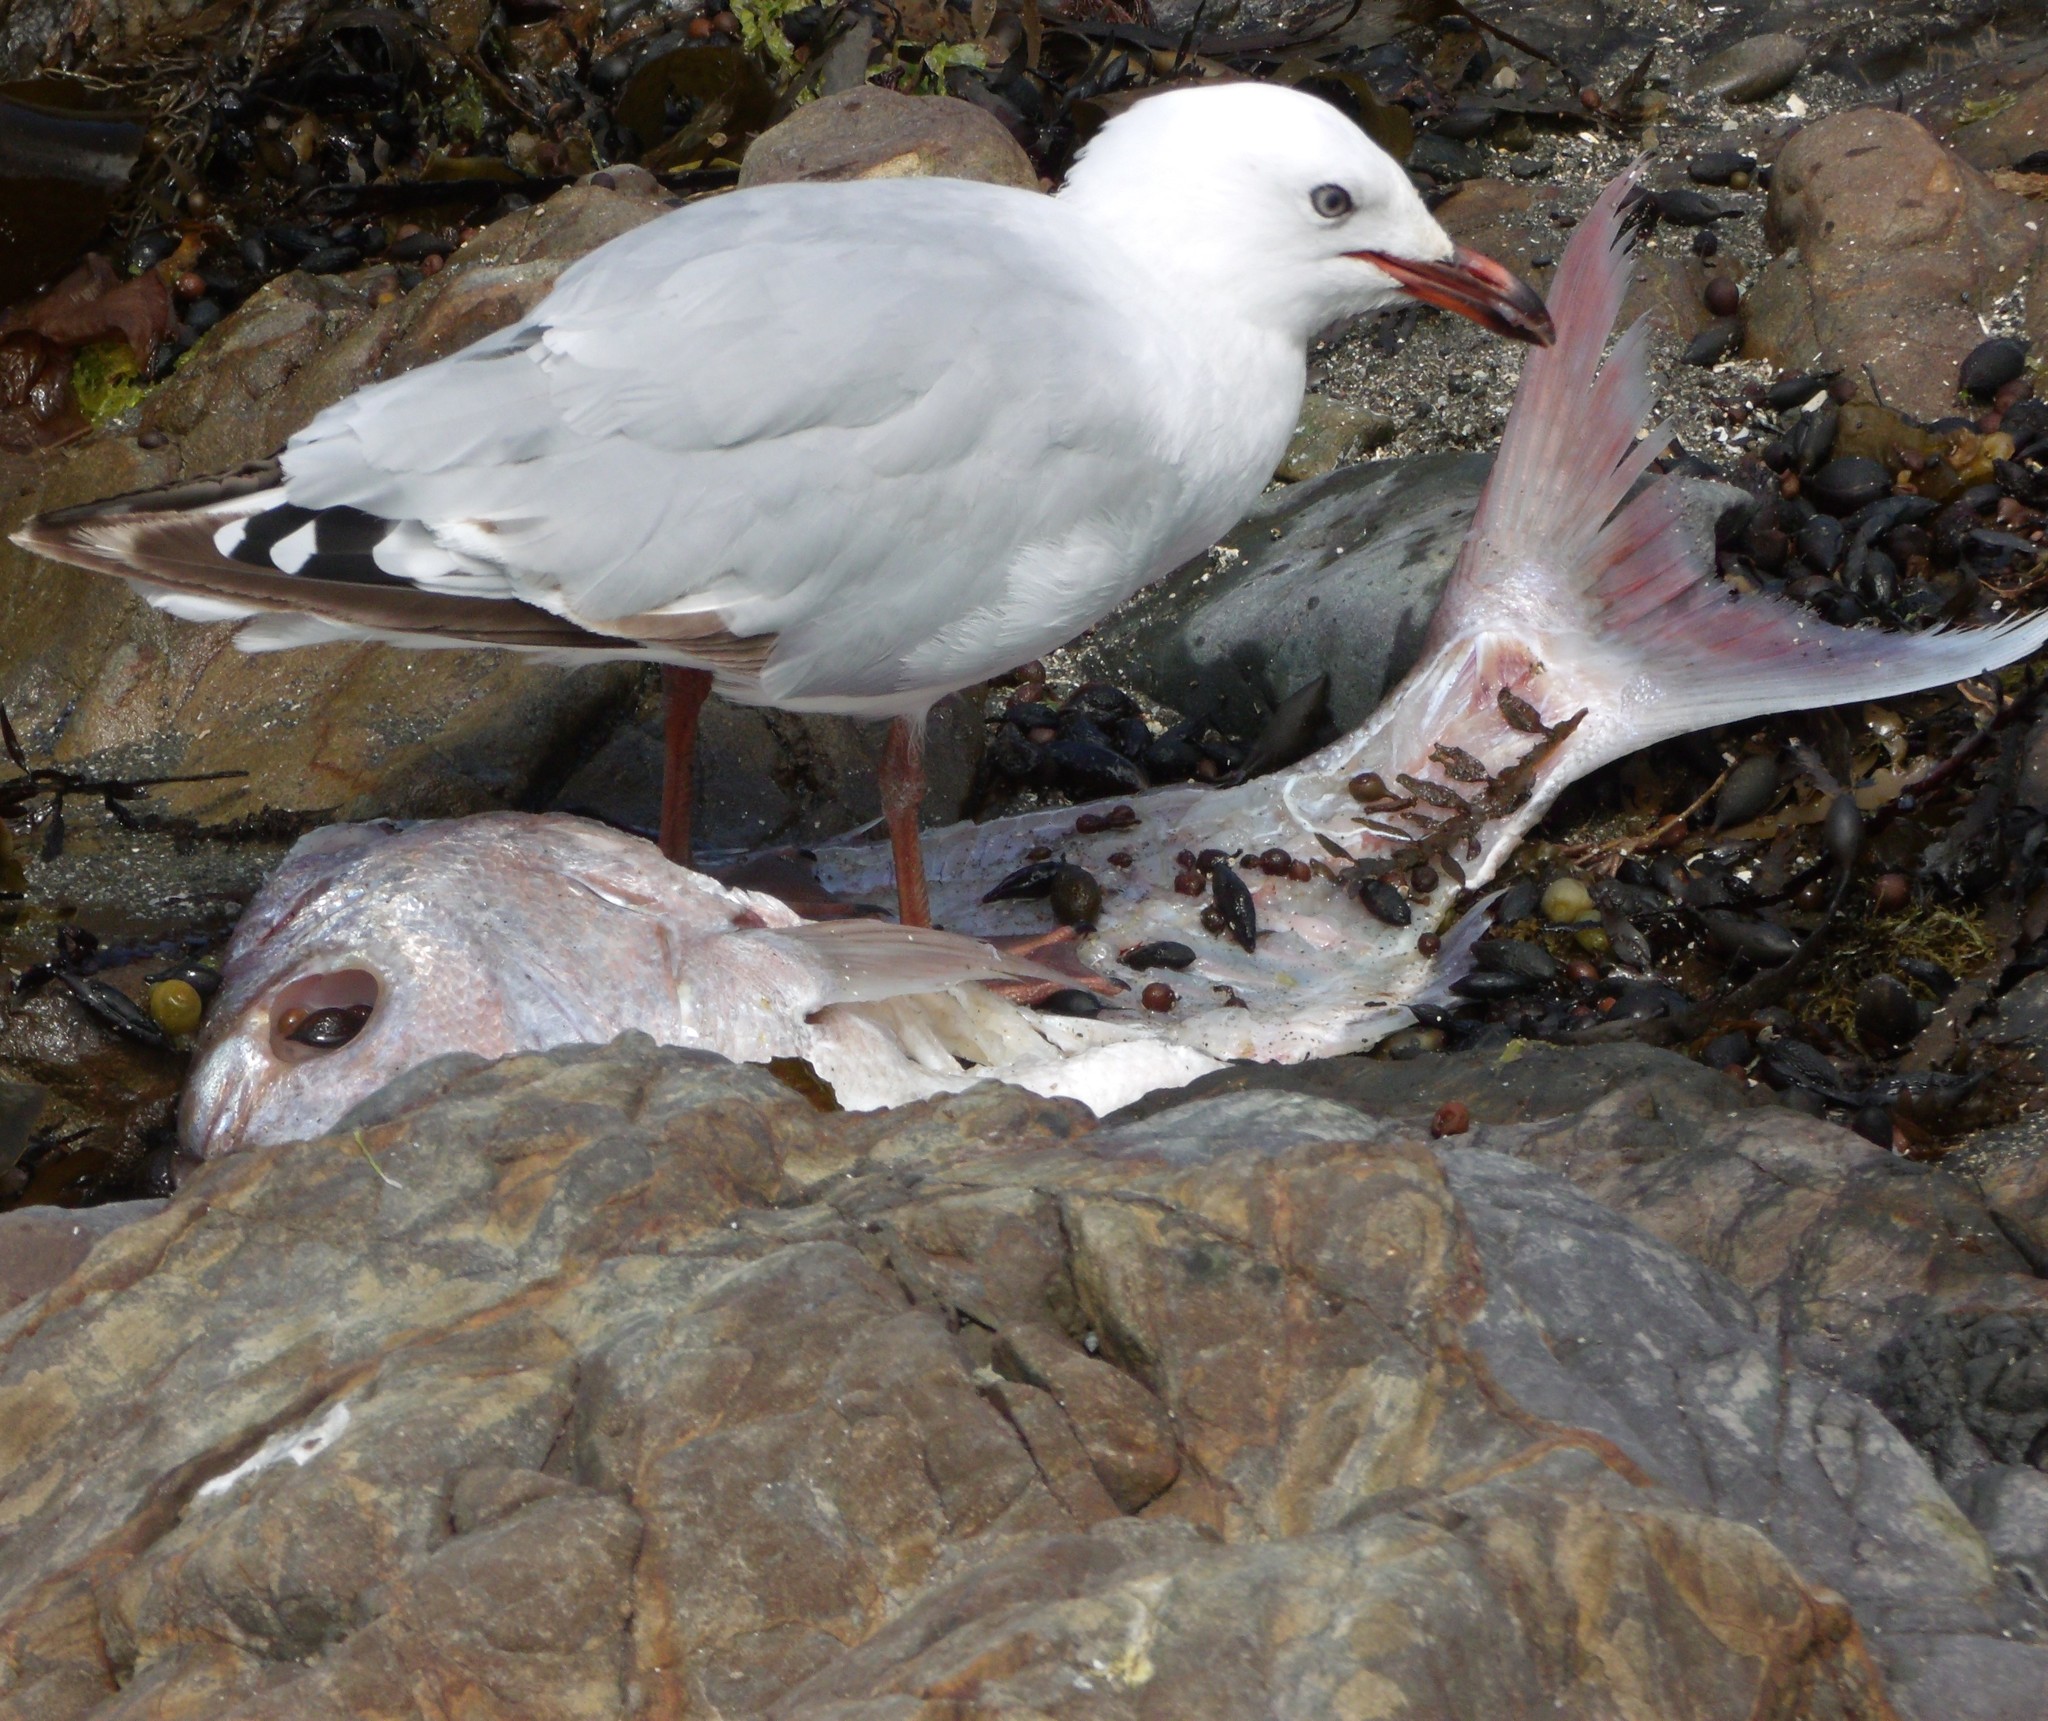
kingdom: Animalia
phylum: Chordata
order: Perciformes
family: Sparidae
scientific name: Sparidae
